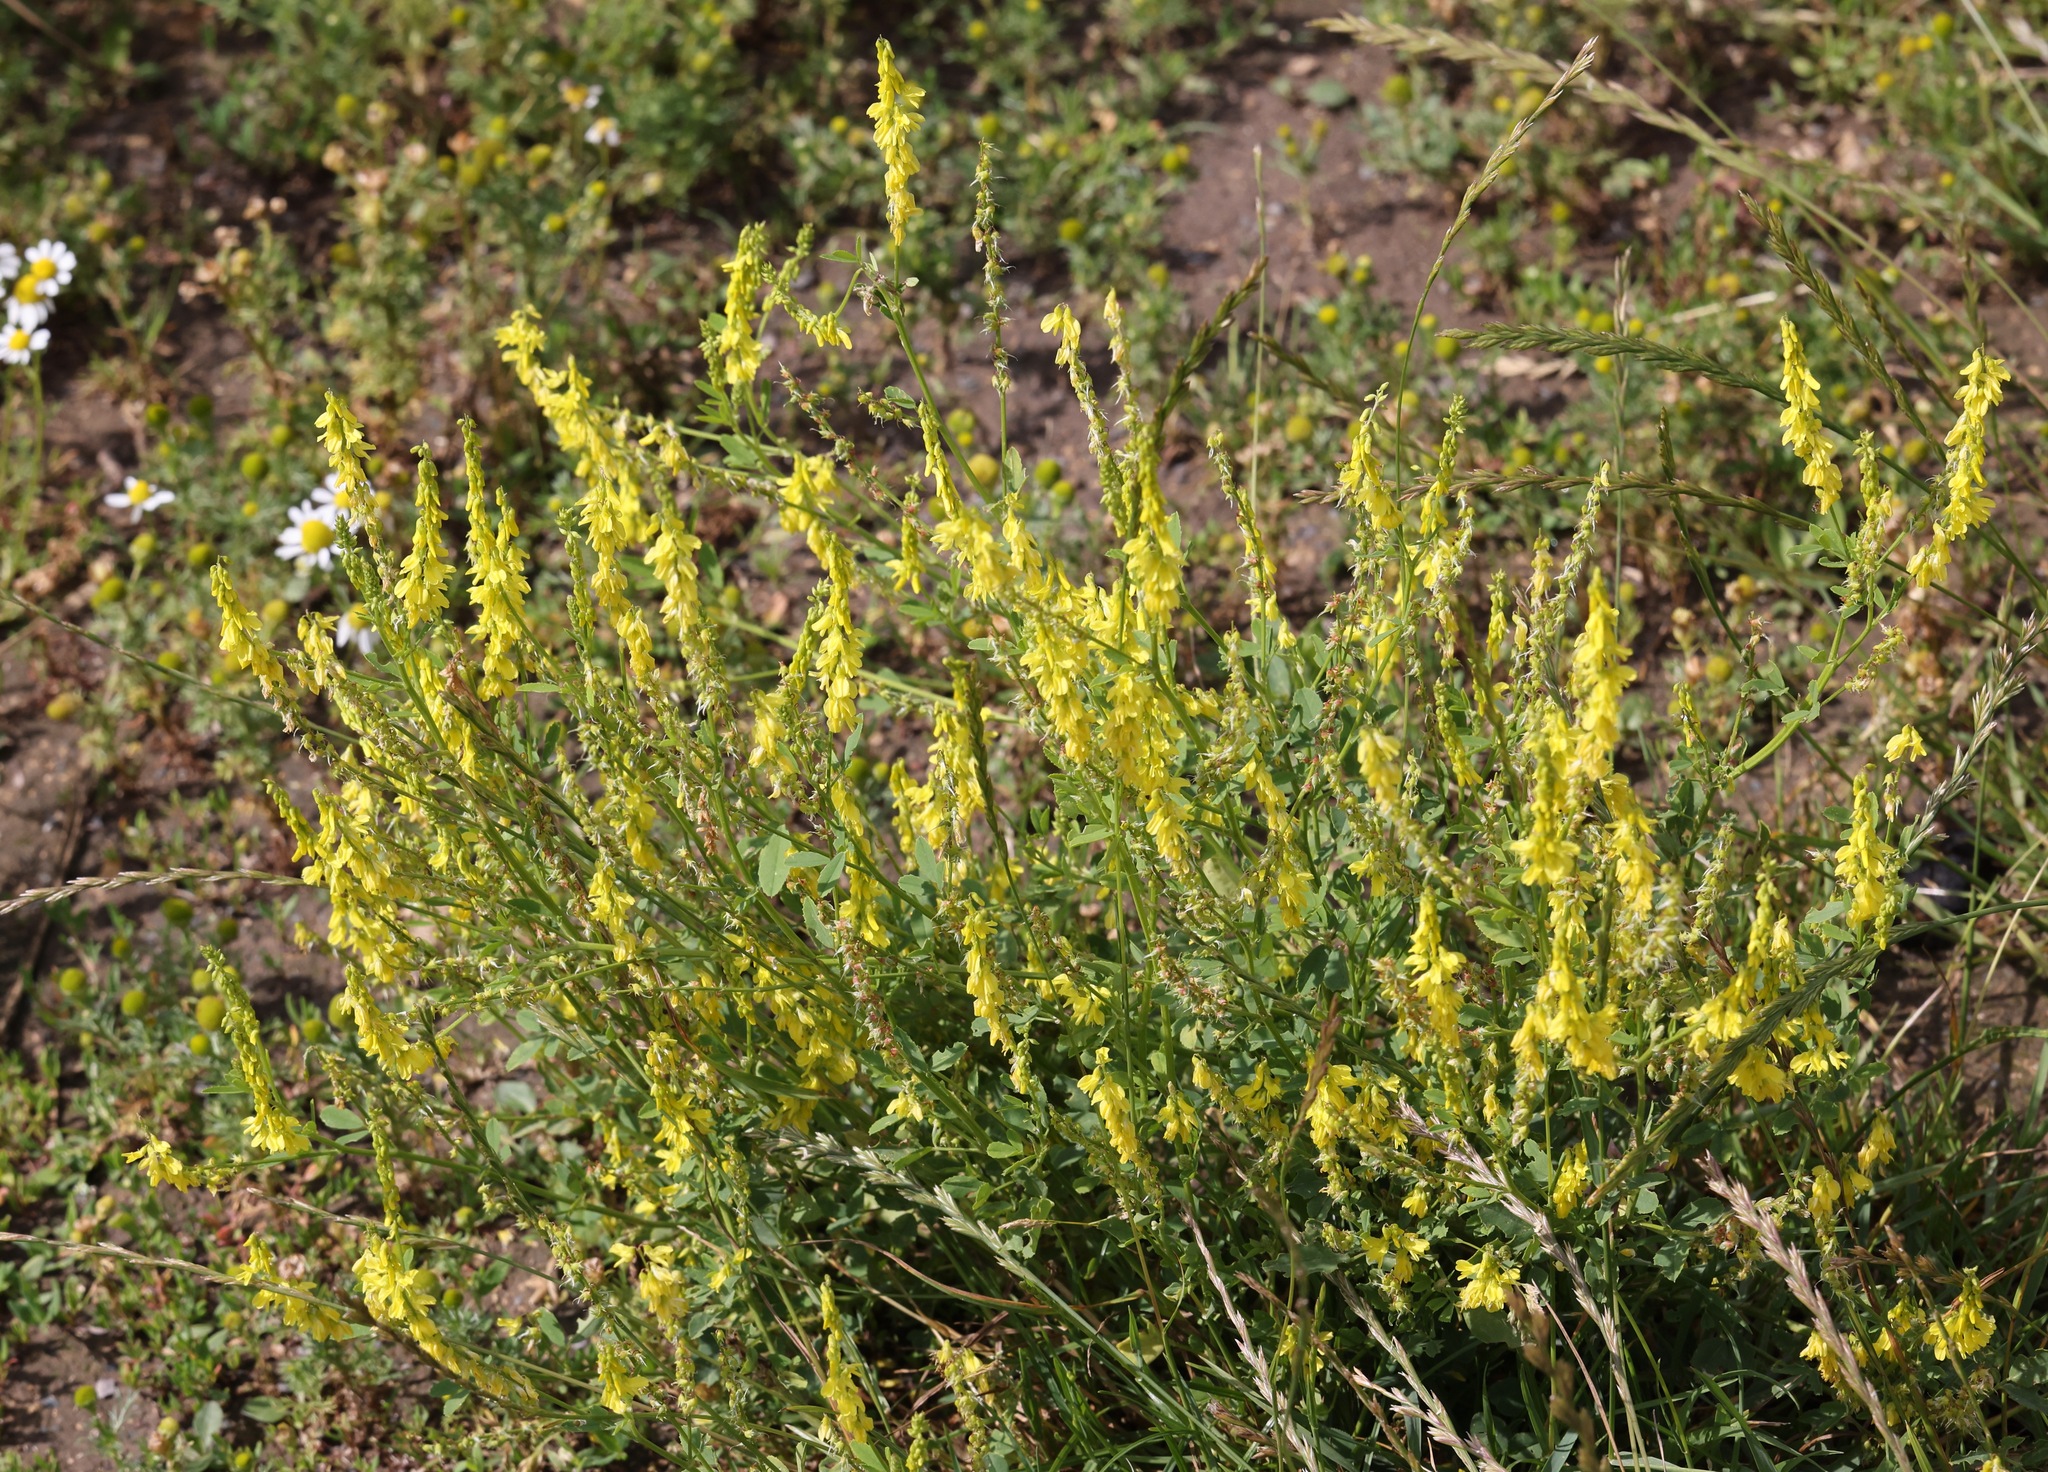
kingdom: Plantae
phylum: Tracheophyta
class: Magnoliopsida
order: Fabales
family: Fabaceae
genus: Melilotus
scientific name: Melilotus officinalis
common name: Sweetclover
